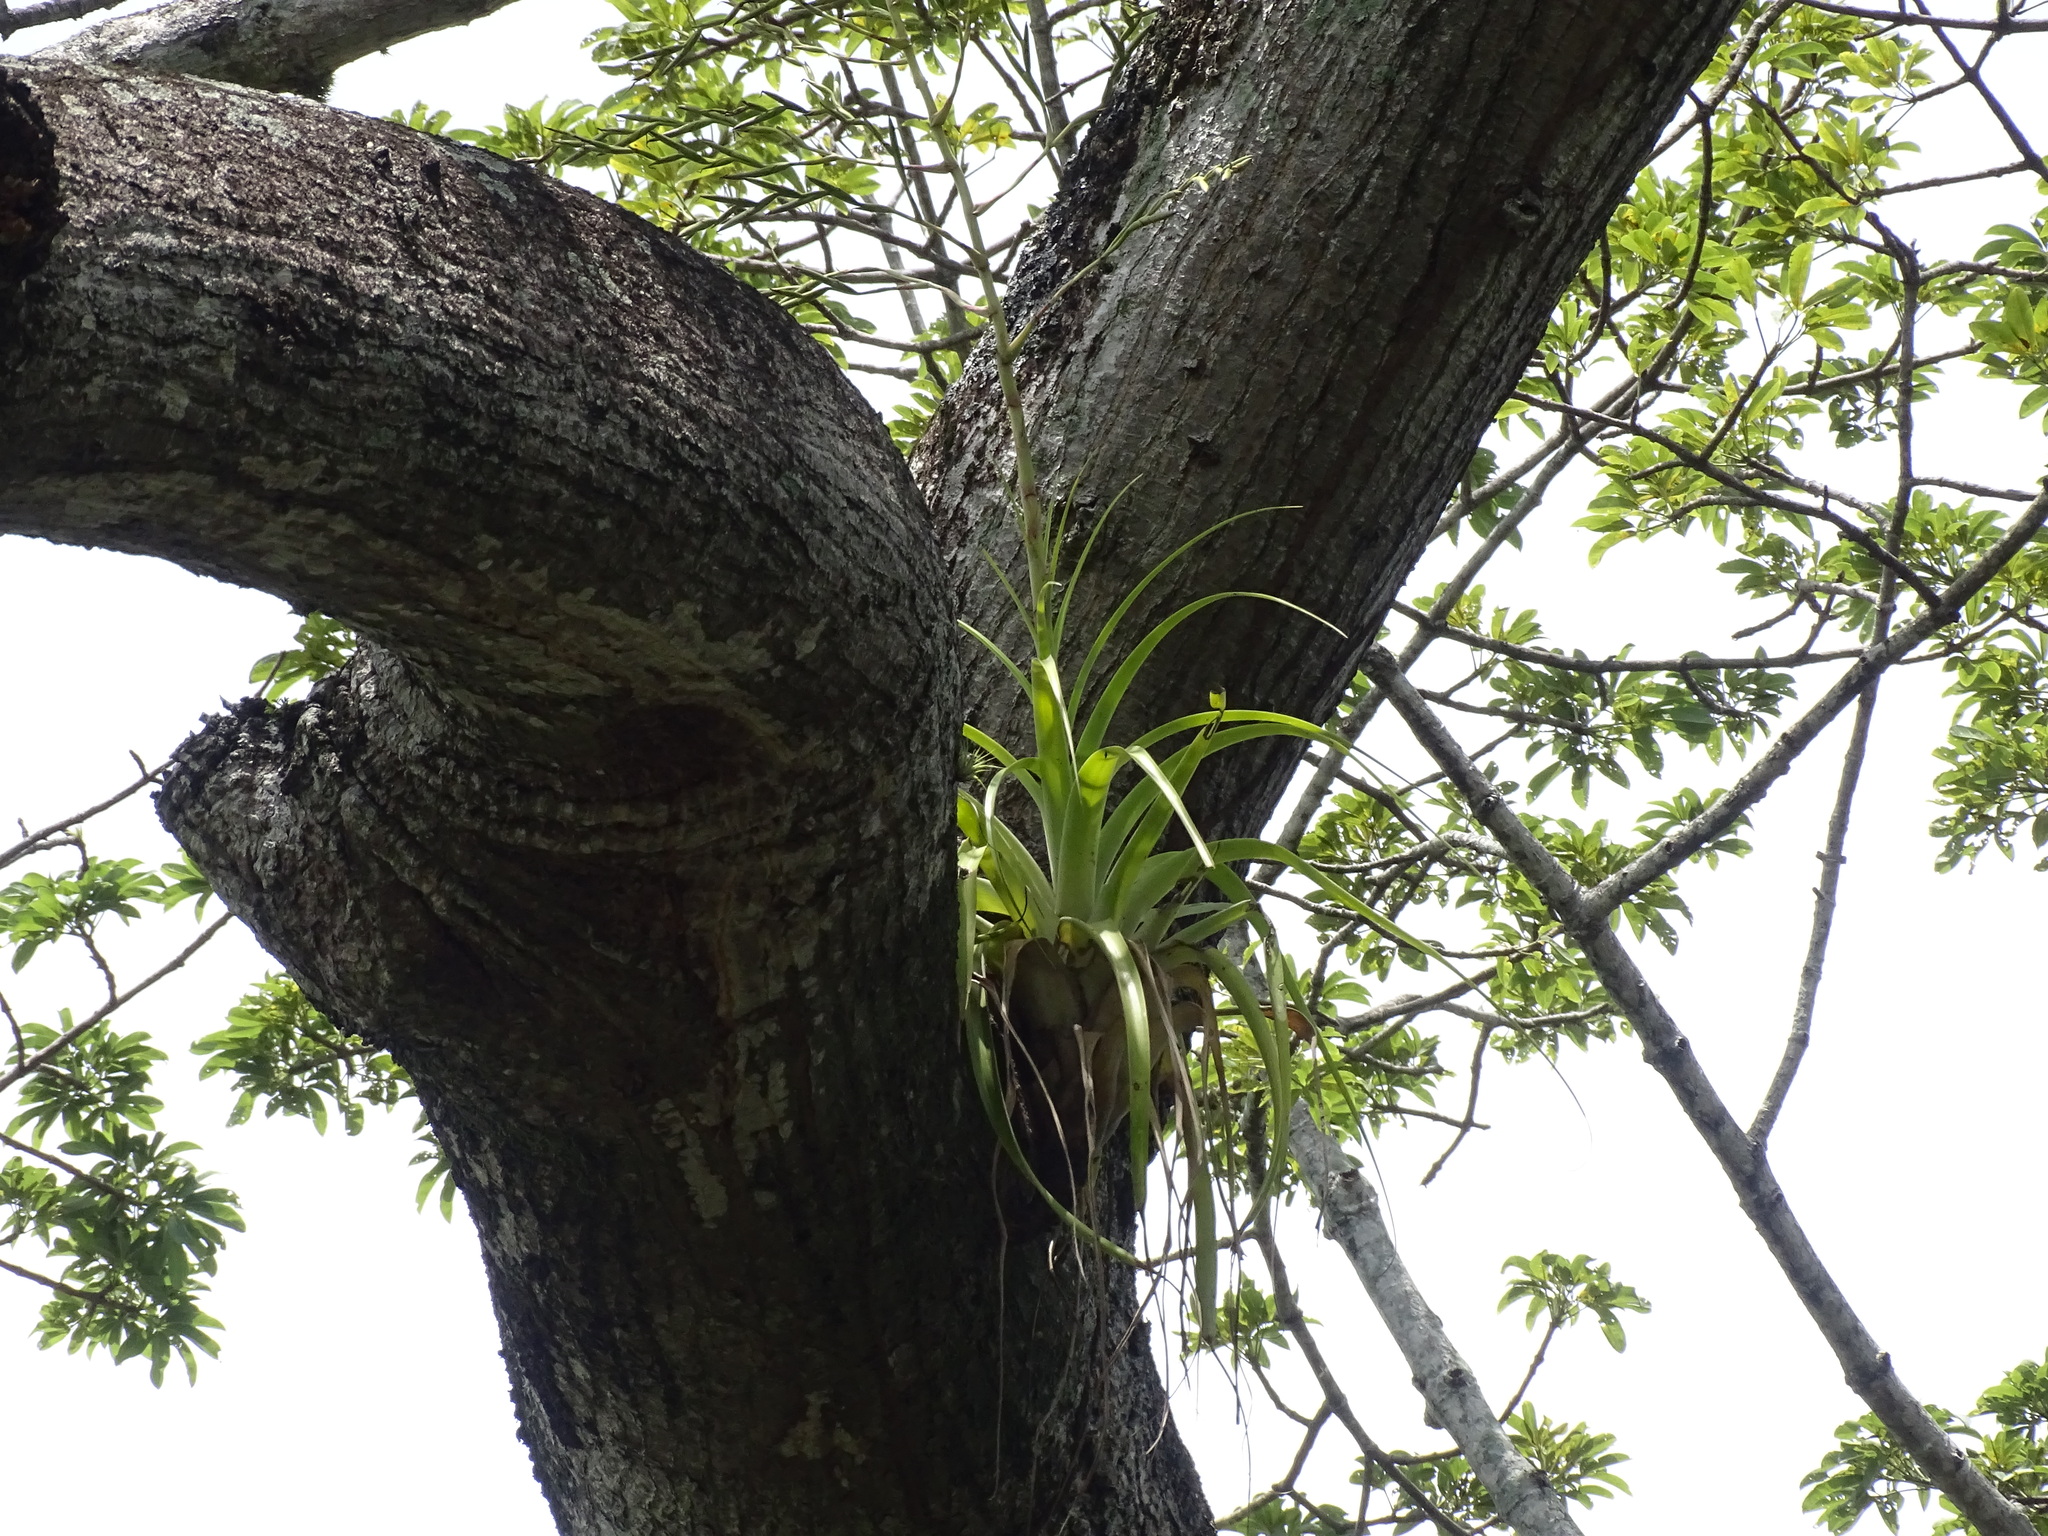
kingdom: Plantae
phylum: Tracheophyta
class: Liliopsida
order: Poales
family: Bromeliaceae
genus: Tillandsia
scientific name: Tillandsia utriculata
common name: Wild pine
